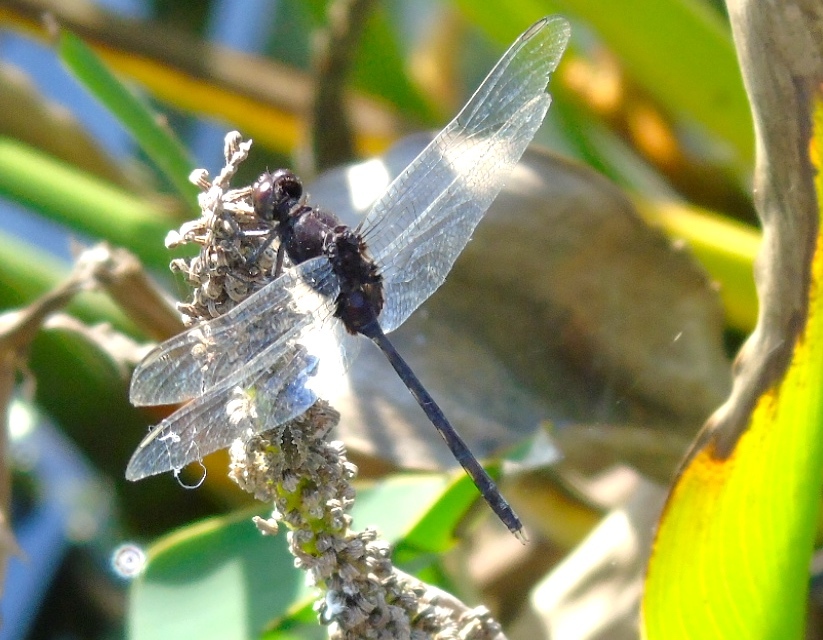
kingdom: Animalia
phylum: Arthropoda
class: Insecta
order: Odonata
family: Libellulidae
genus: Erythemis
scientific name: Erythemis plebeja
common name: Pin-tailed pondhawk
